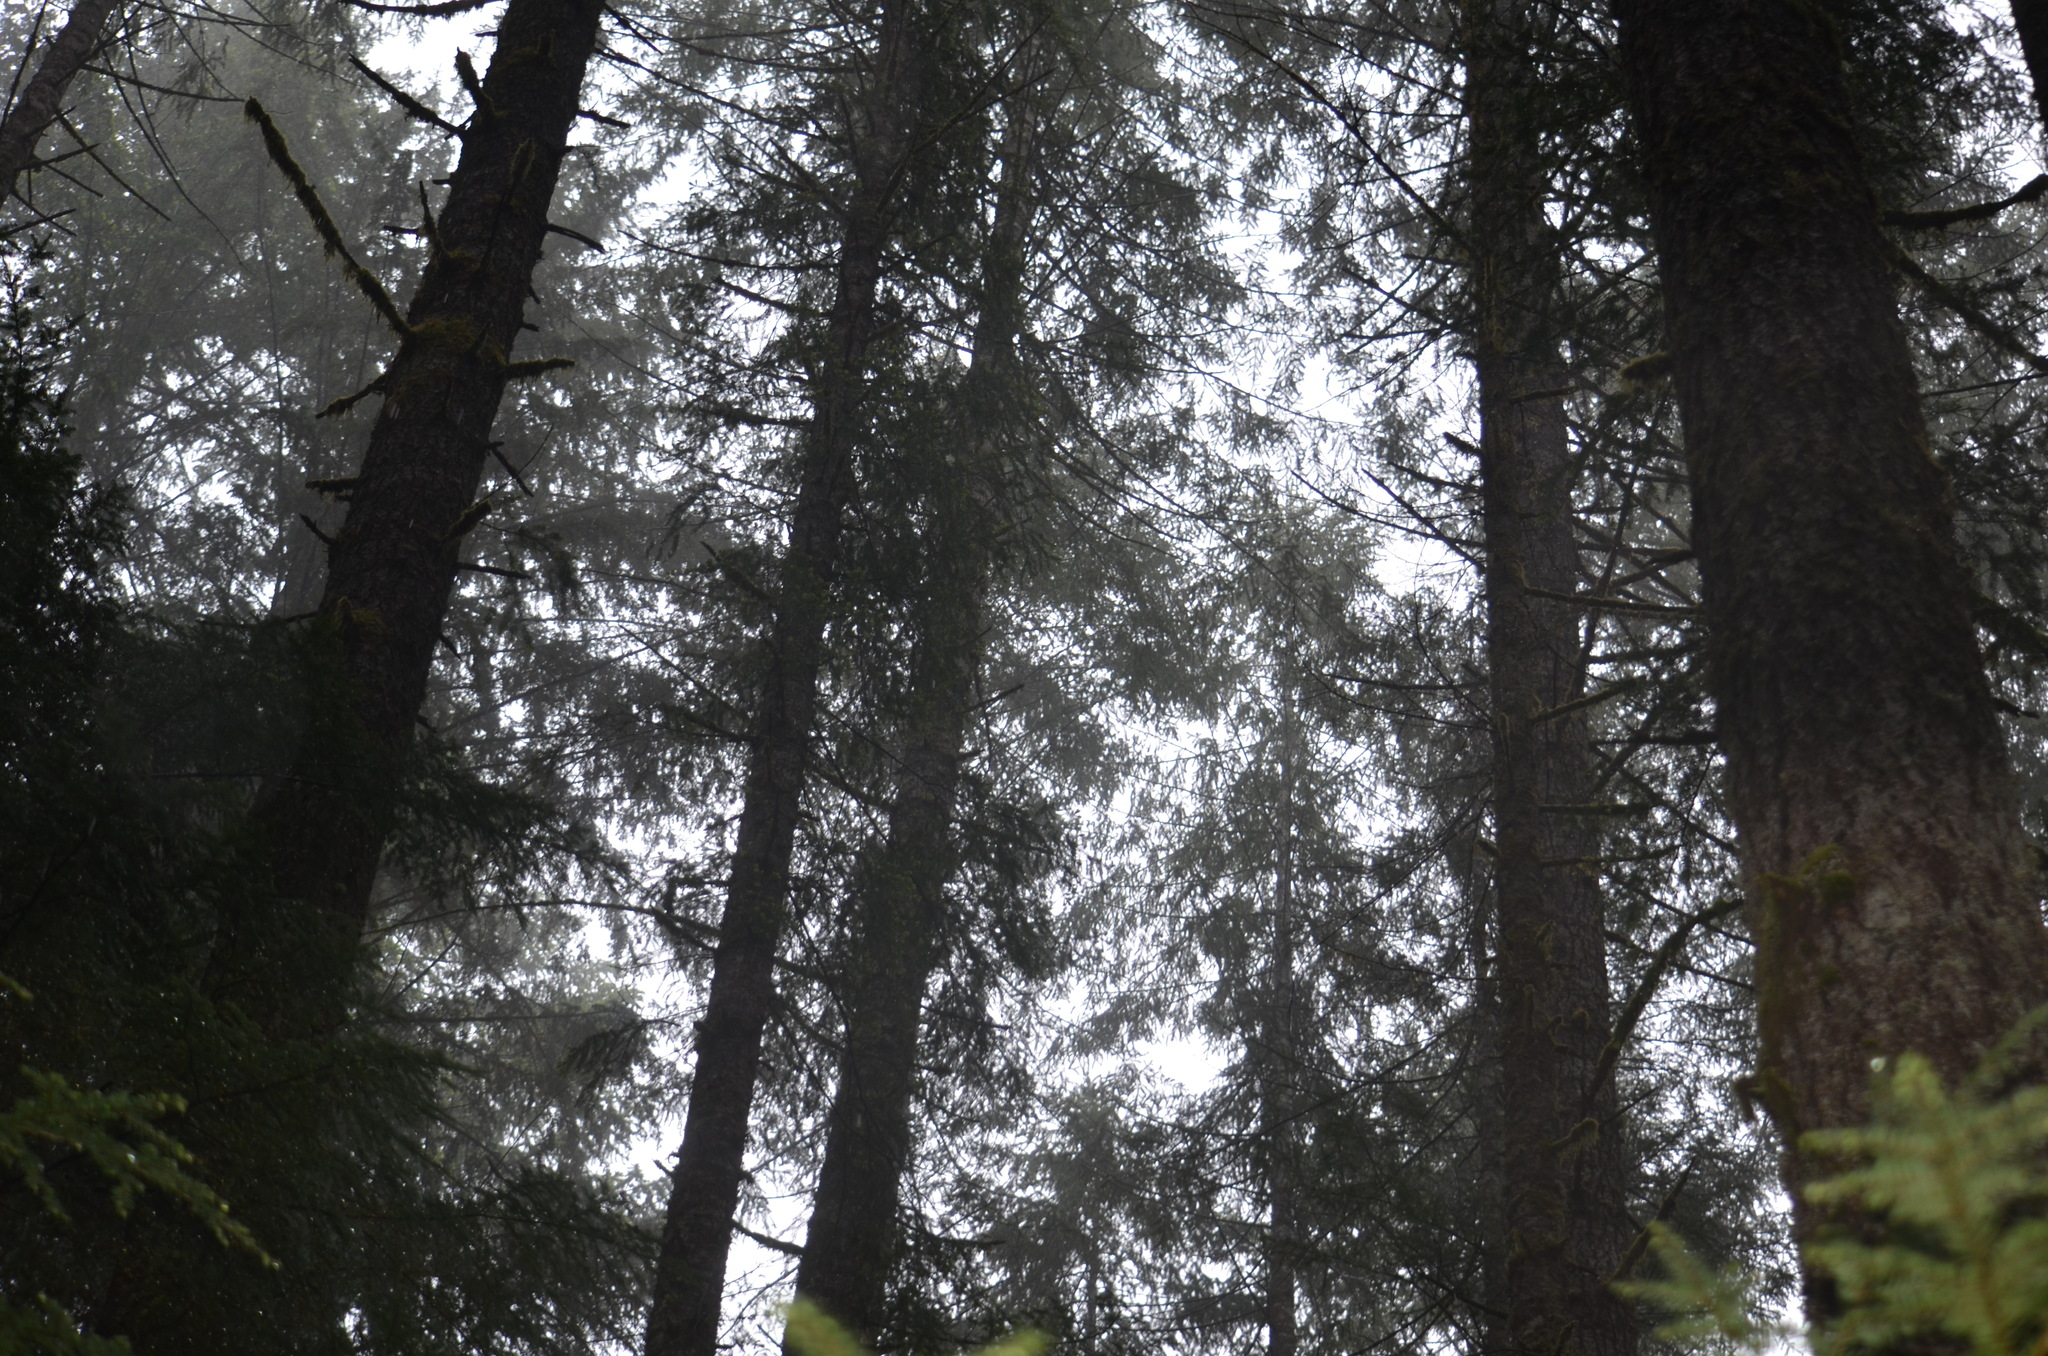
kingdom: Plantae
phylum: Tracheophyta
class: Pinopsida
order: Pinales
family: Pinaceae
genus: Pseudotsuga
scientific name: Pseudotsuga menziesii
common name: Douglas fir
